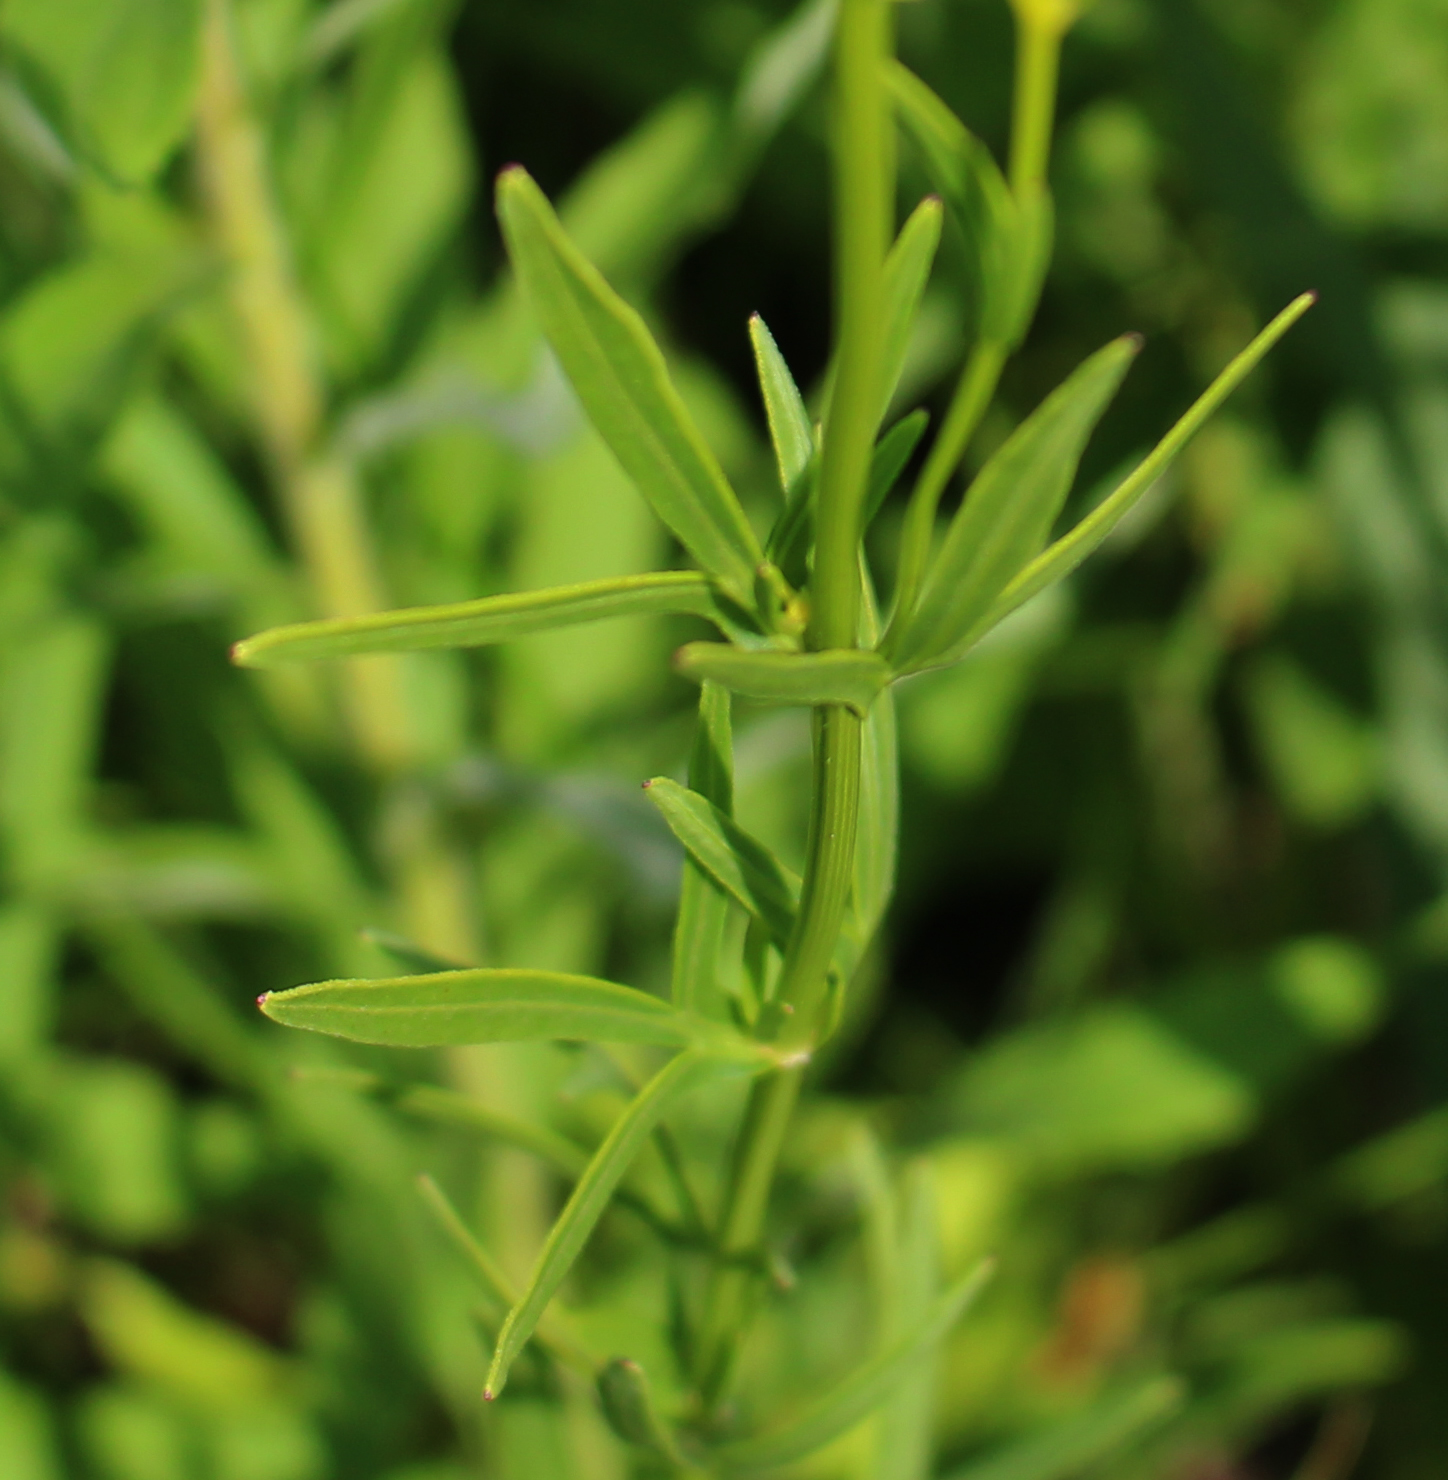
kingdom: Plantae
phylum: Tracheophyta
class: Magnoliopsida
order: Asterales
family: Asteraceae
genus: Coreopsis
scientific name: Coreopsis palmata
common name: Prairie coreopsis
